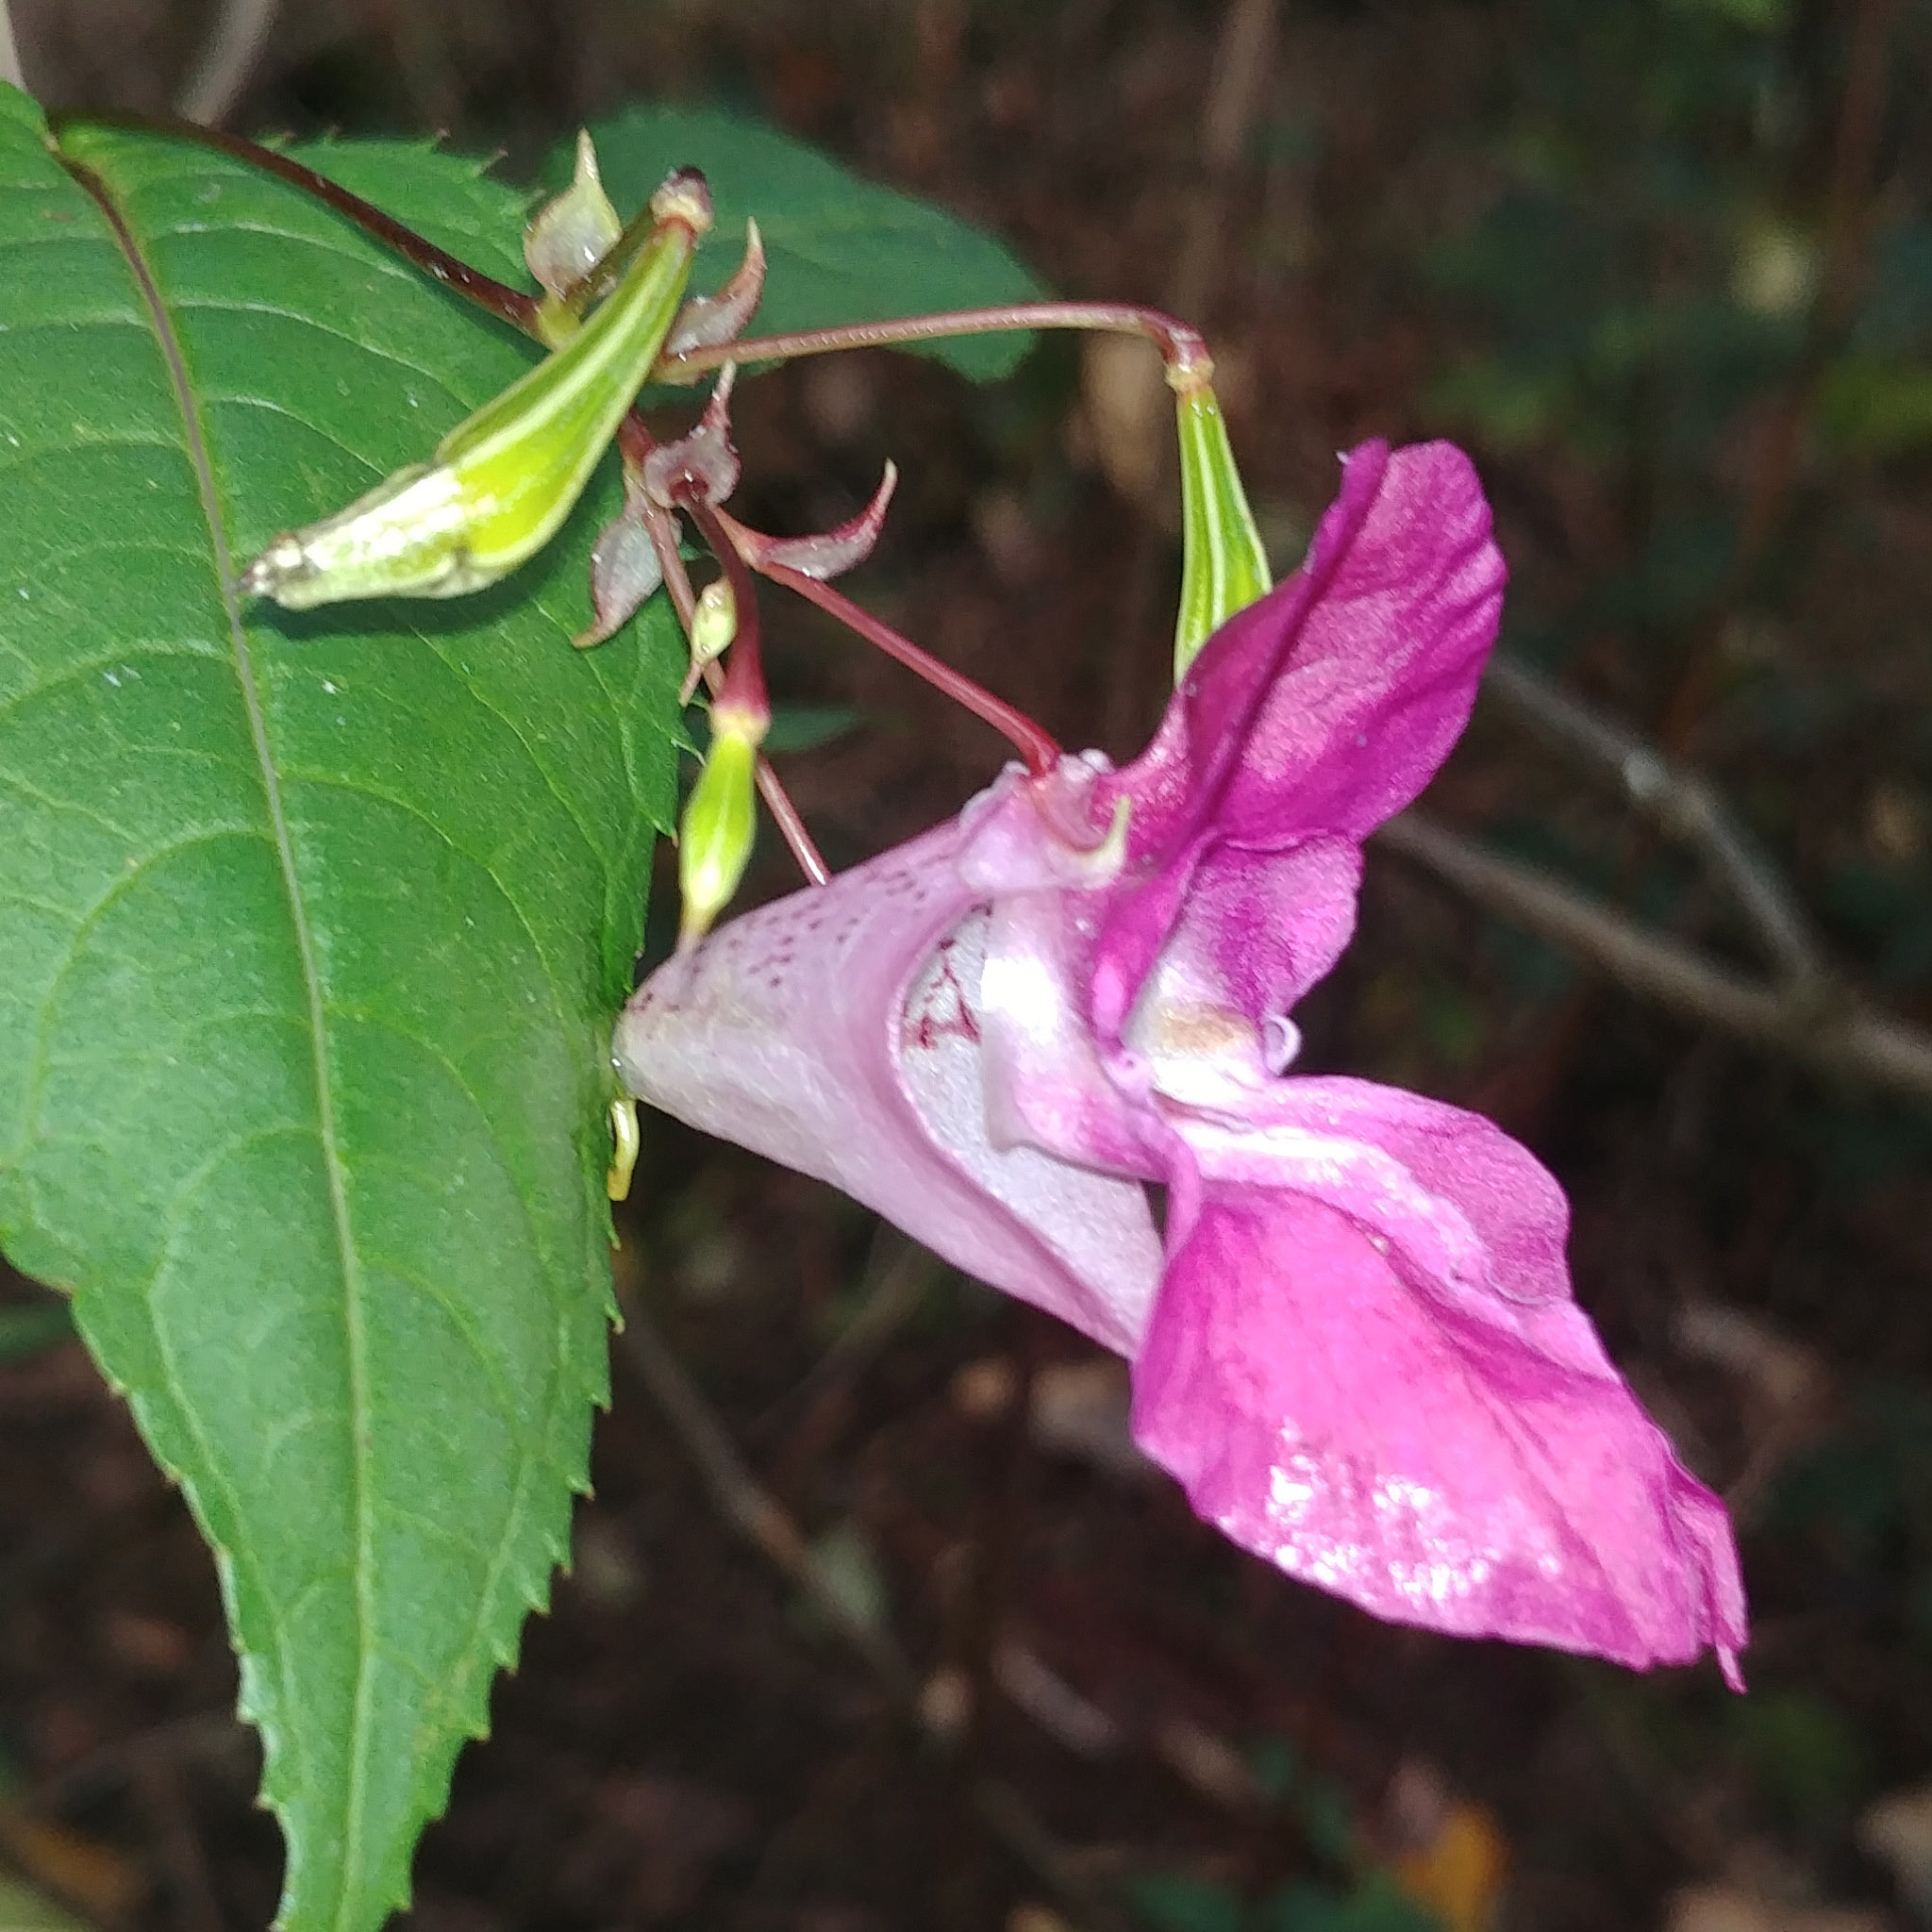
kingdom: Plantae
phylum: Tracheophyta
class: Magnoliopsida
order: Ericales
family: Balsaminaceae
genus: Impatiens
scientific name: Impatiens glandulifera
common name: Himalayan balsam
